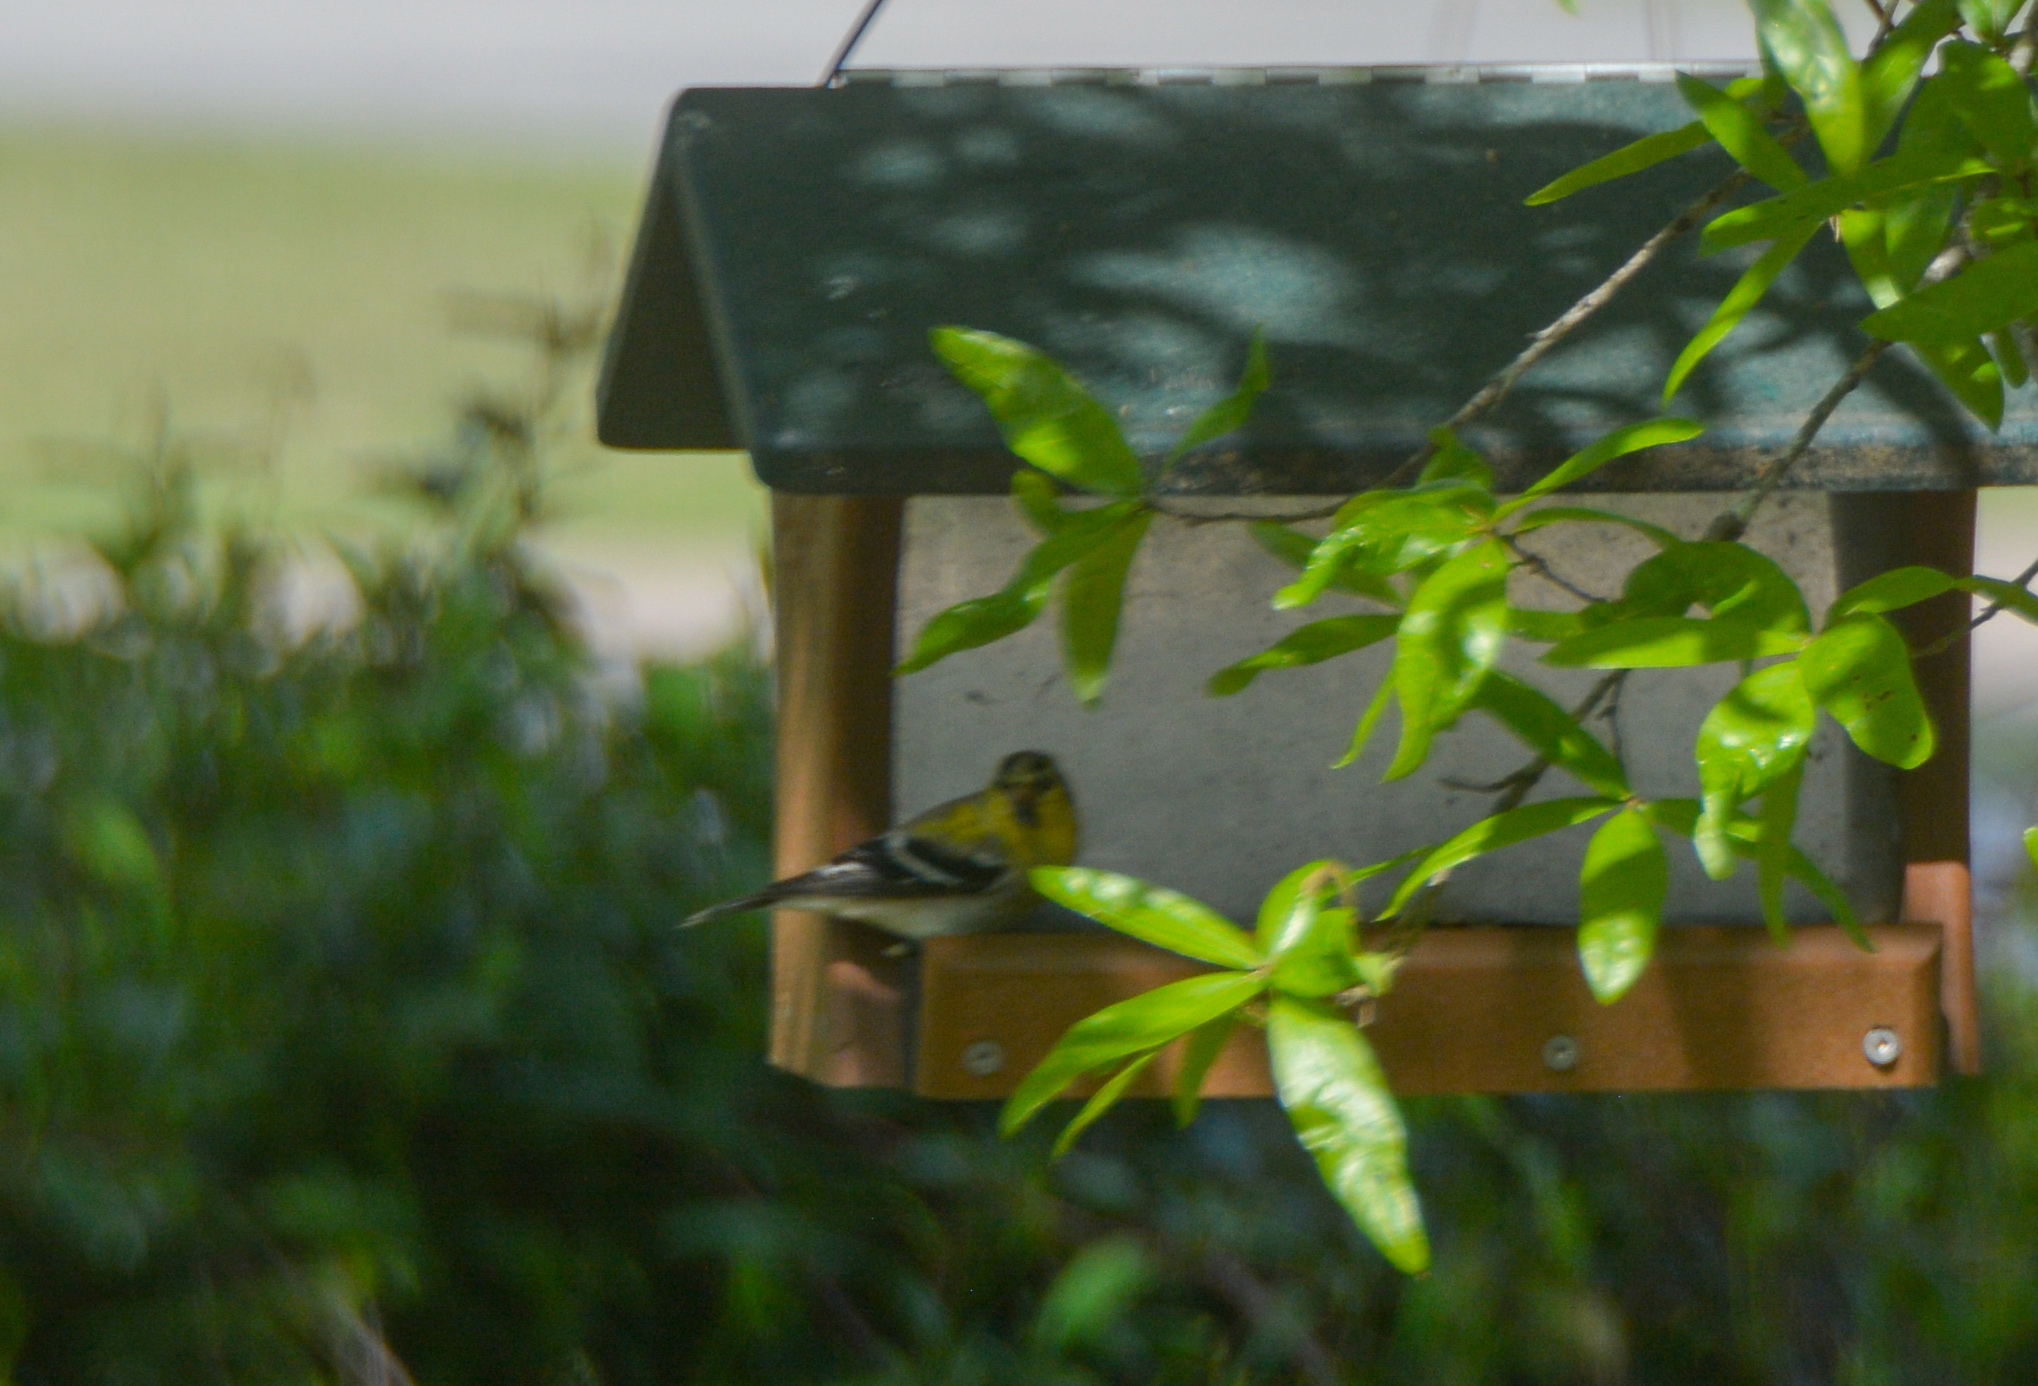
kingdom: Animalia
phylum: Chordata
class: Aves
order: Passeriformes
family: Fringillidae
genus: Spinus
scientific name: Spinus tristis
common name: American goldfinch
